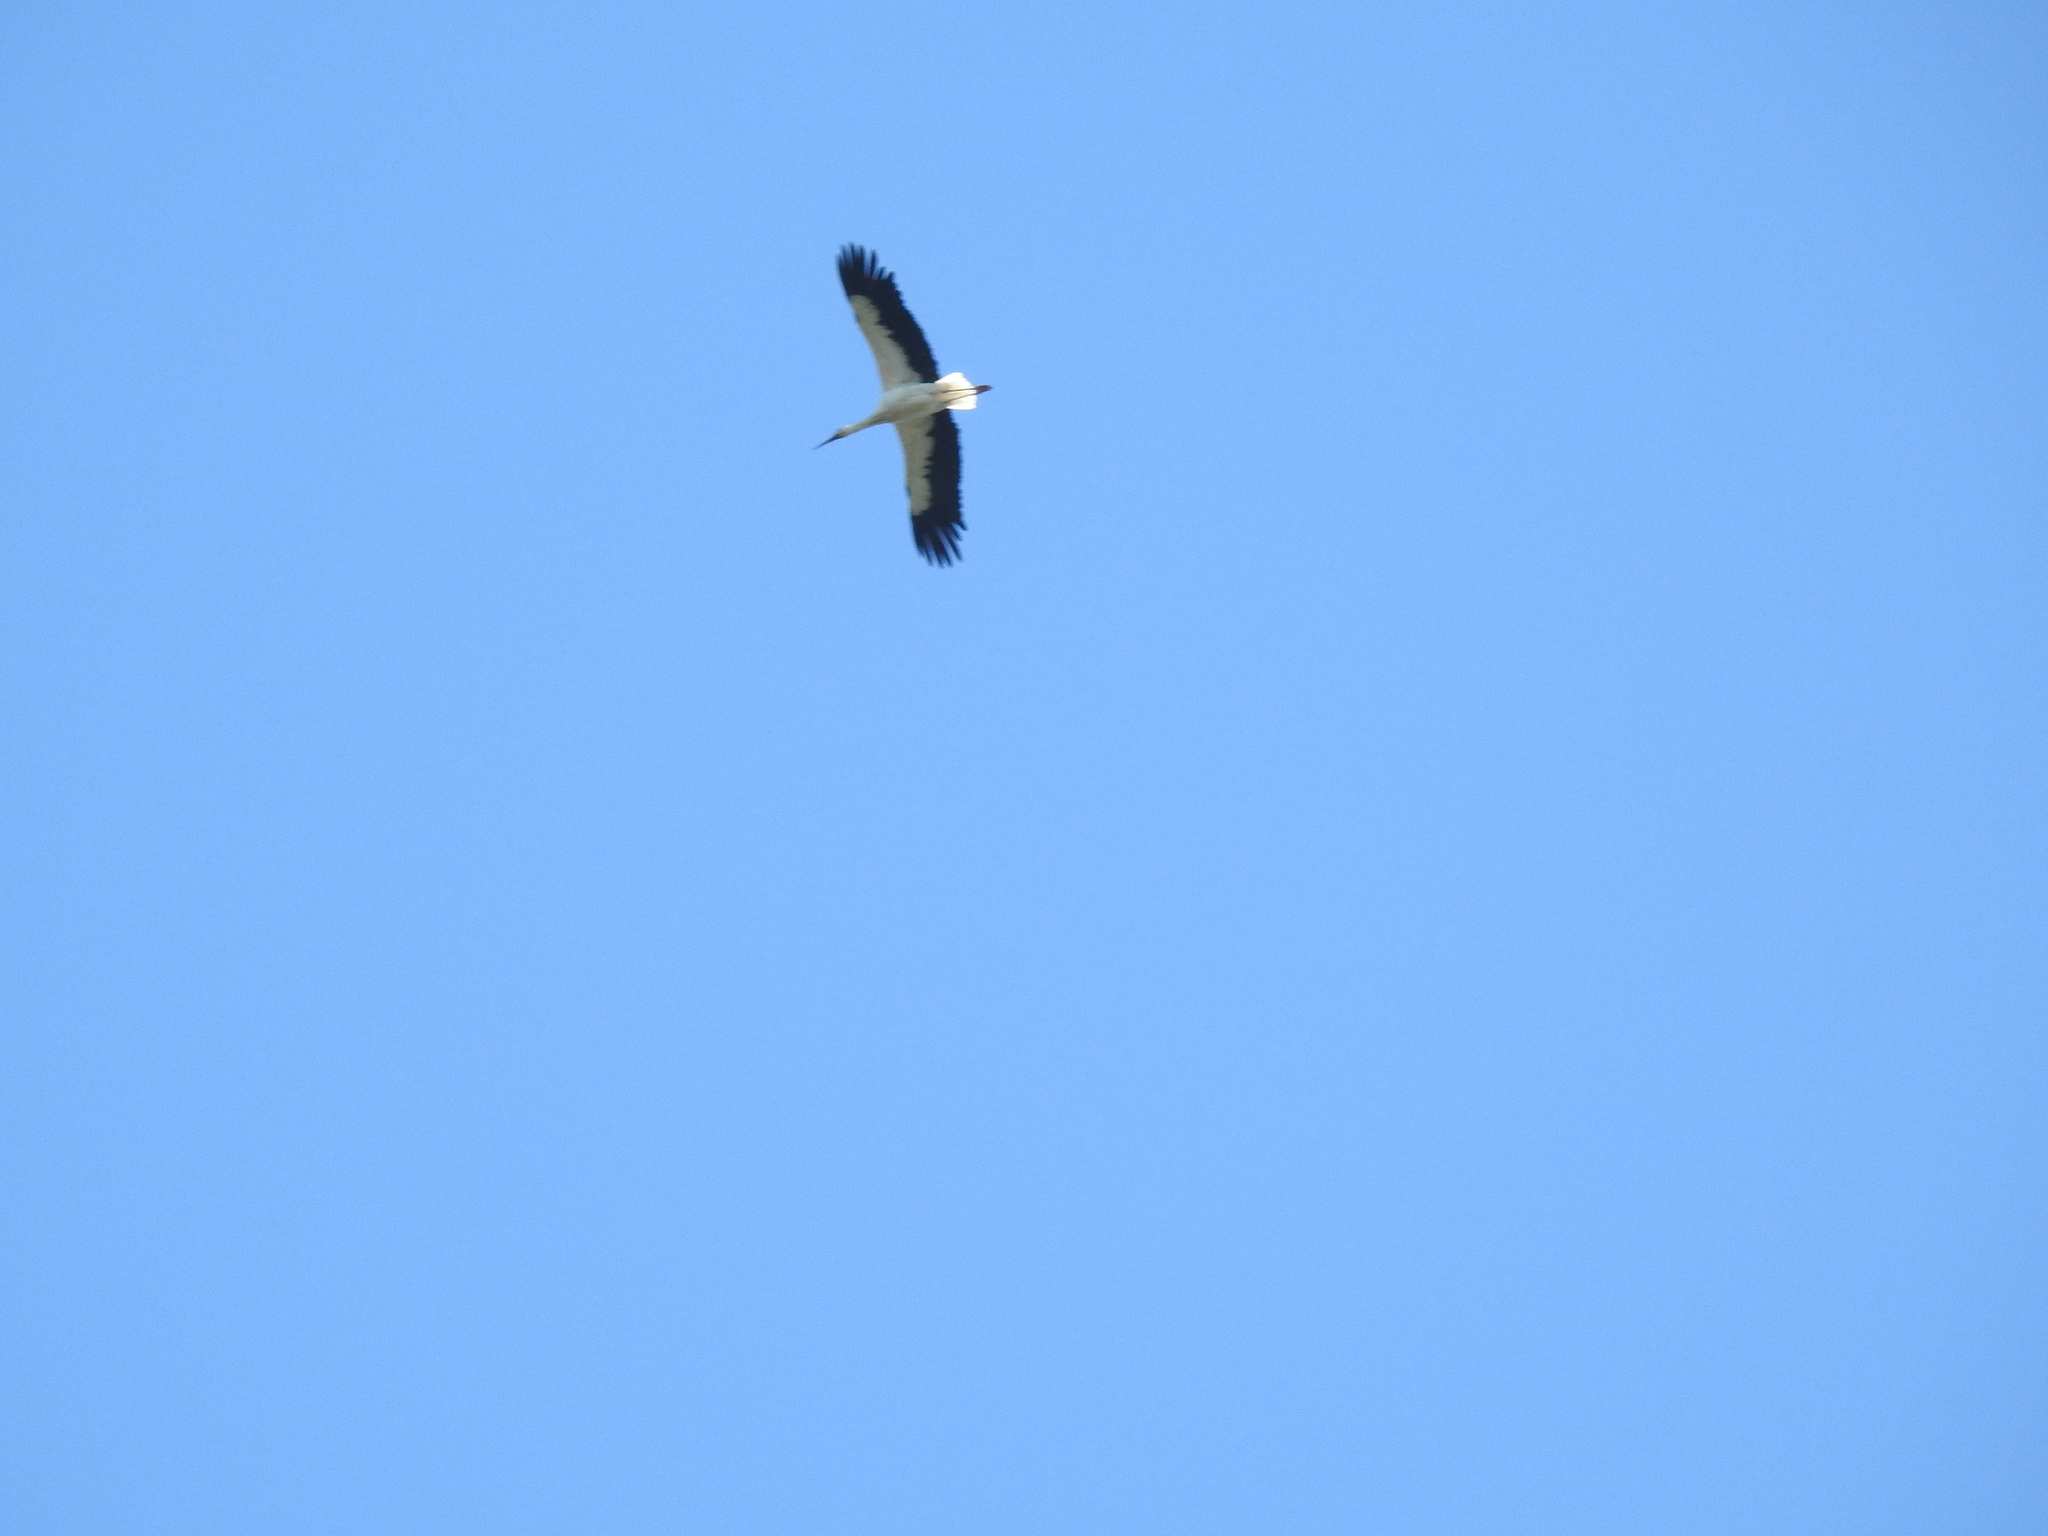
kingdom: Animalia
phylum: Chordata
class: Aves
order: Ciconiiformes
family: Ciconiidae
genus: Ciconia
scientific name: Ciconia ciconia
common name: White stork
